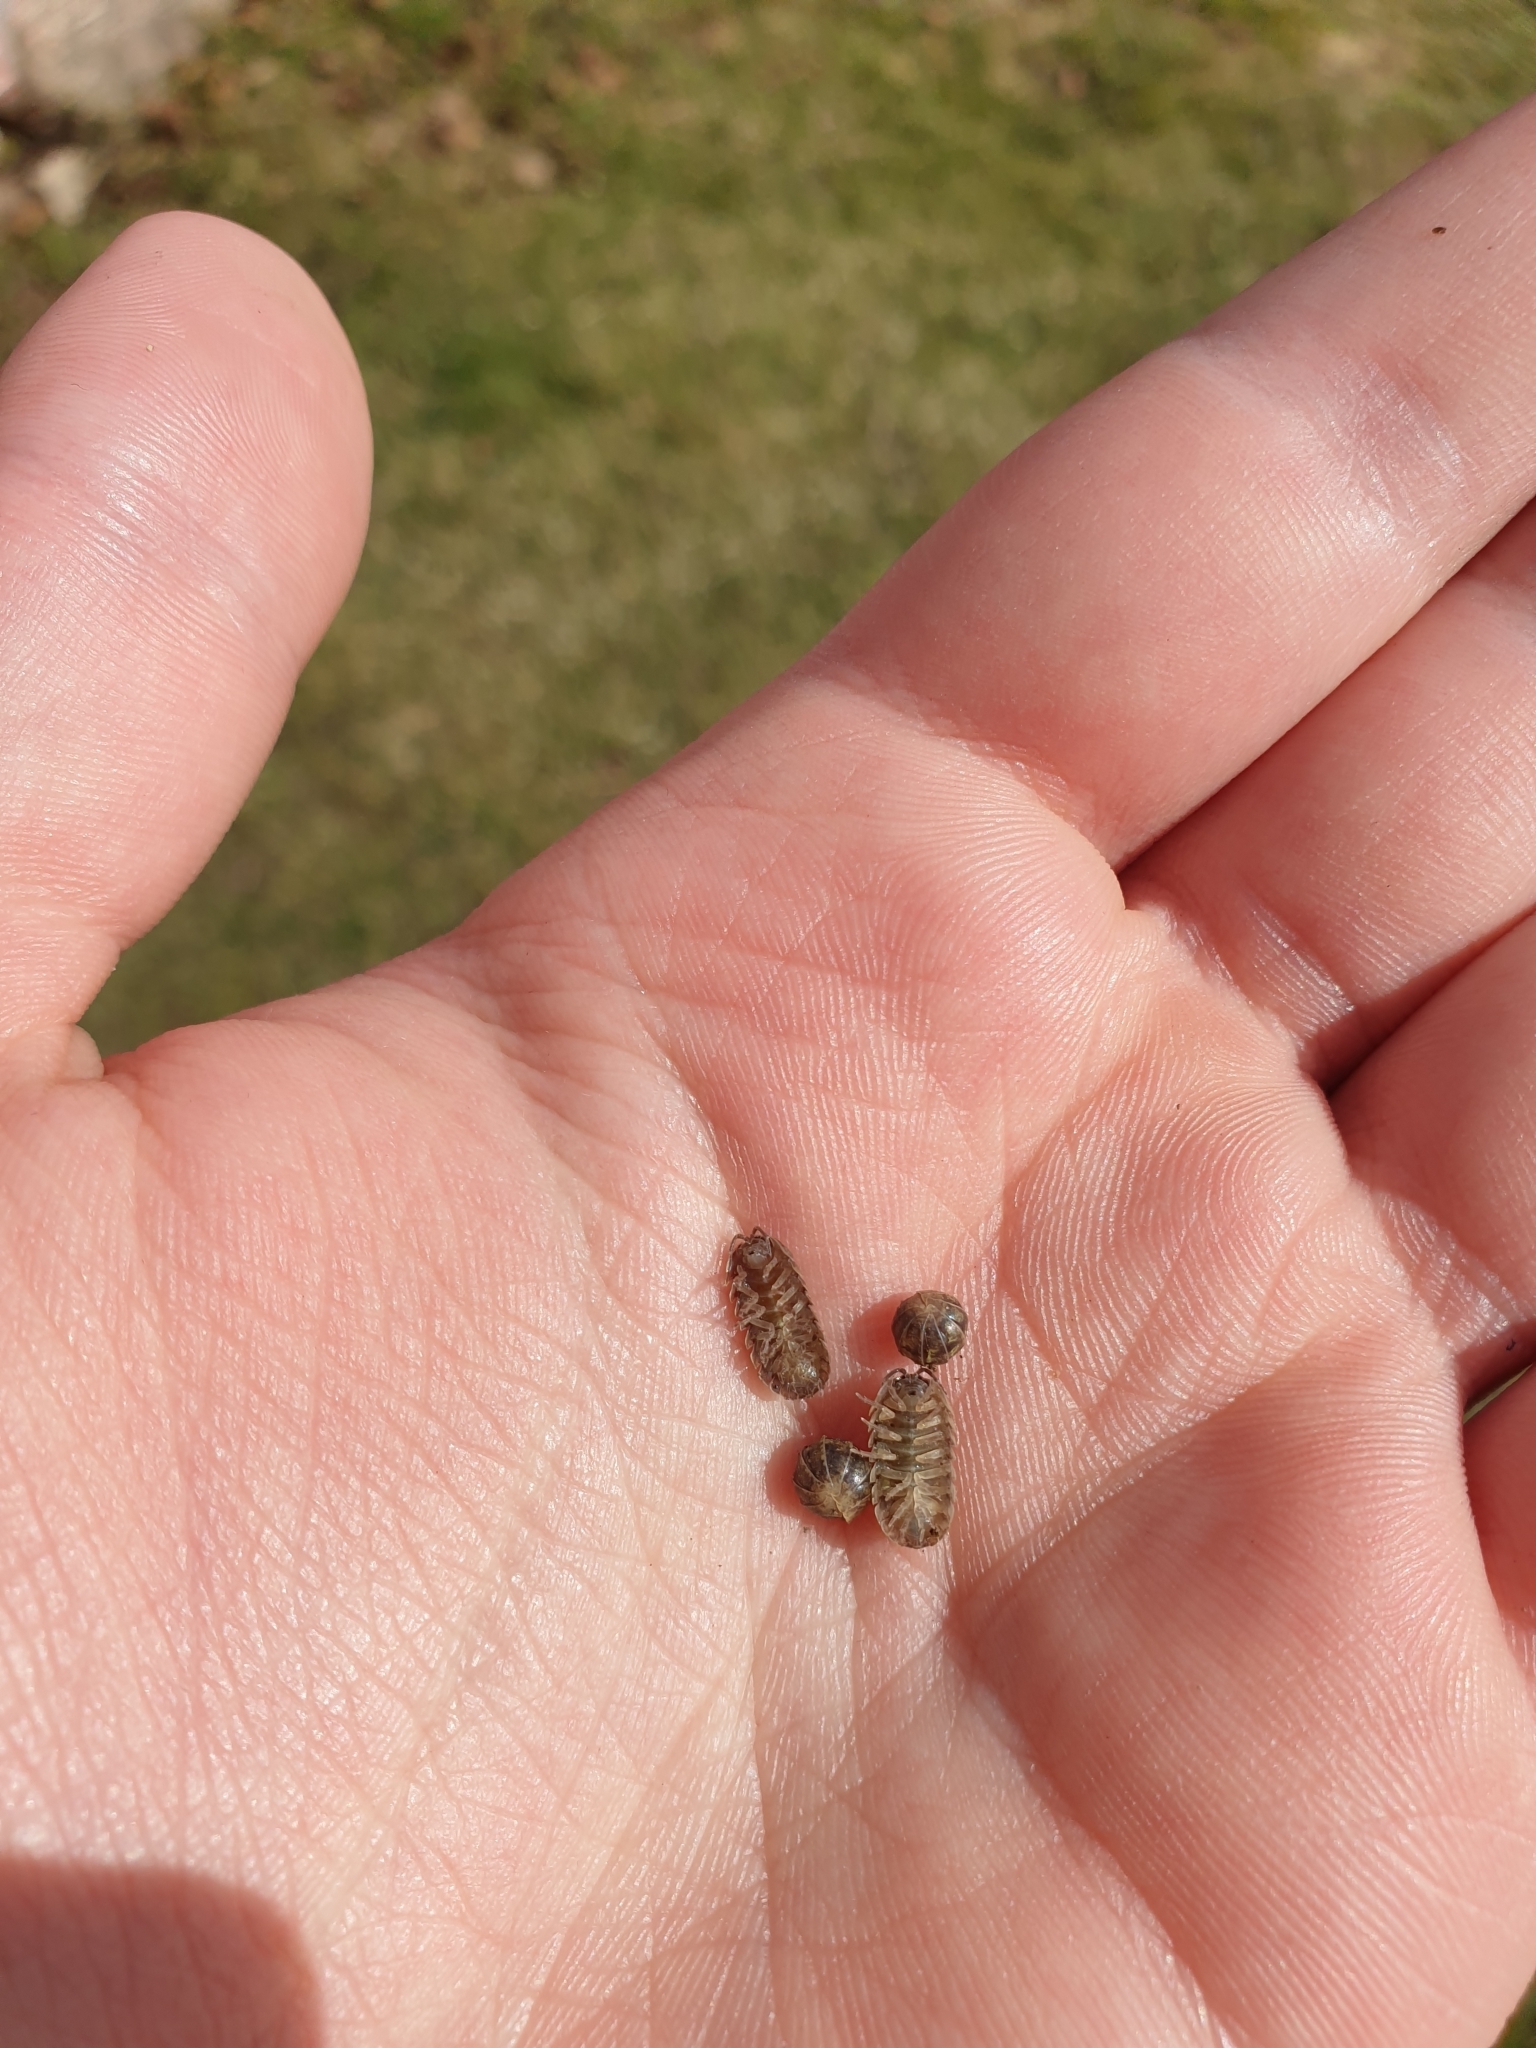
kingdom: Animalia
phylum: Arthropoda
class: Malacostraca
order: Isopoda
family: Armadillidiidae
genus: Armadillidium
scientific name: Armadillidium vulgare
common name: Common pill woodlouse
